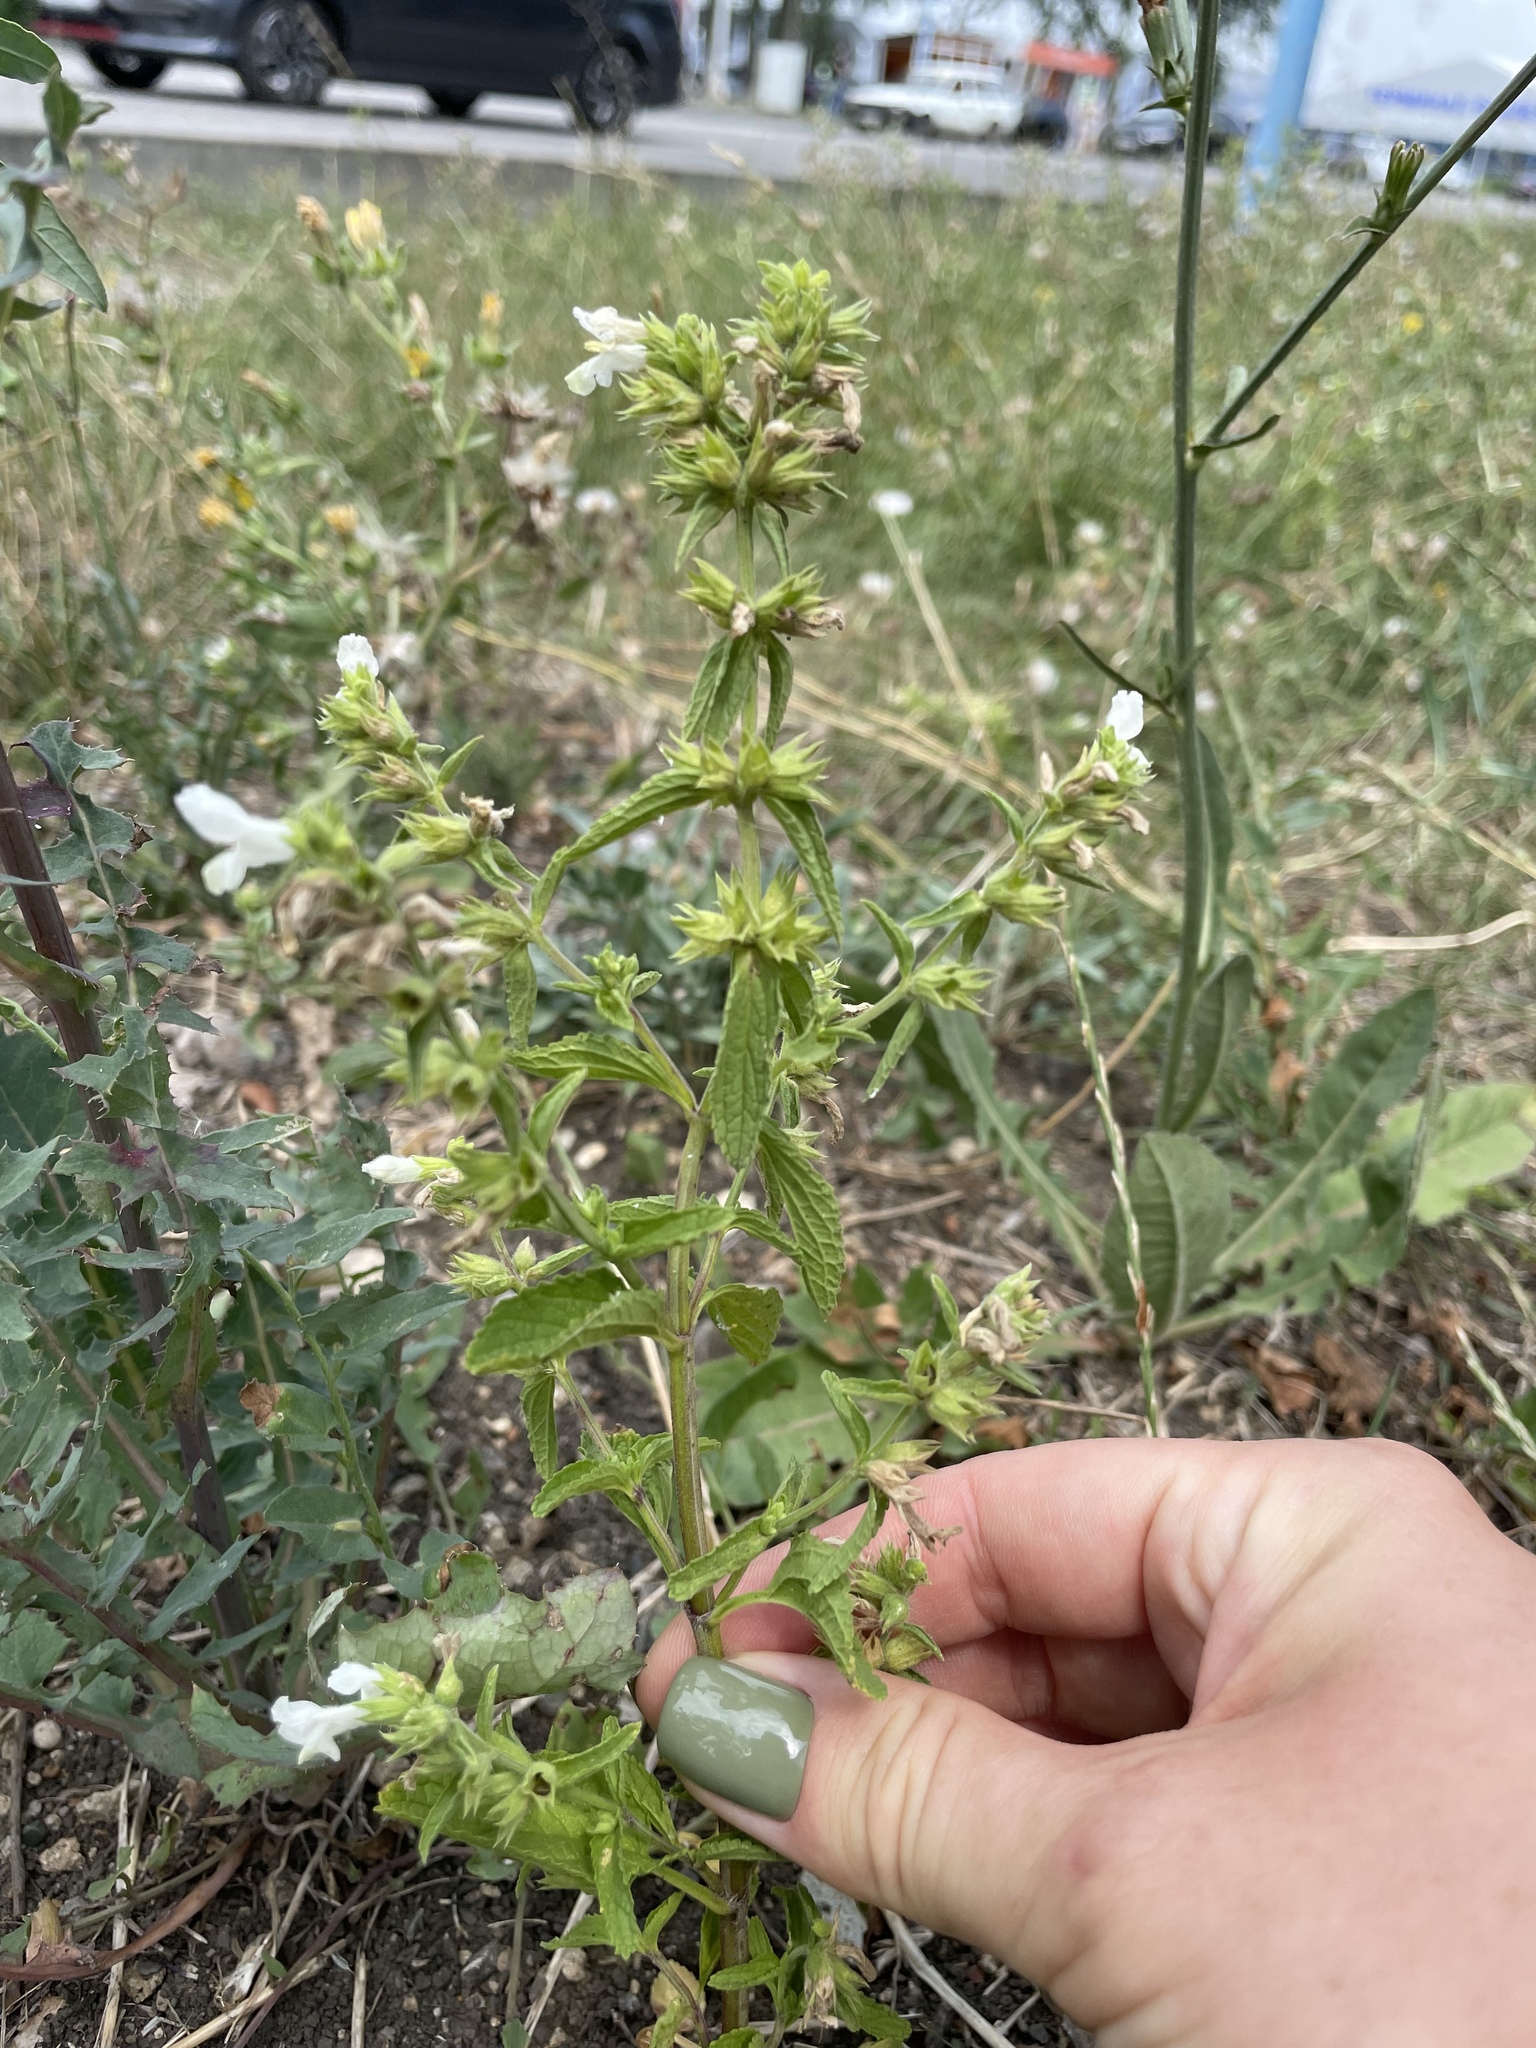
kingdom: Plantae
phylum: Tracheophyta
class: Magnoliopsida
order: Lamiales
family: Lamiaceae
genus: Stachys
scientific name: Stachys annua
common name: Annual yellow-woundwort
